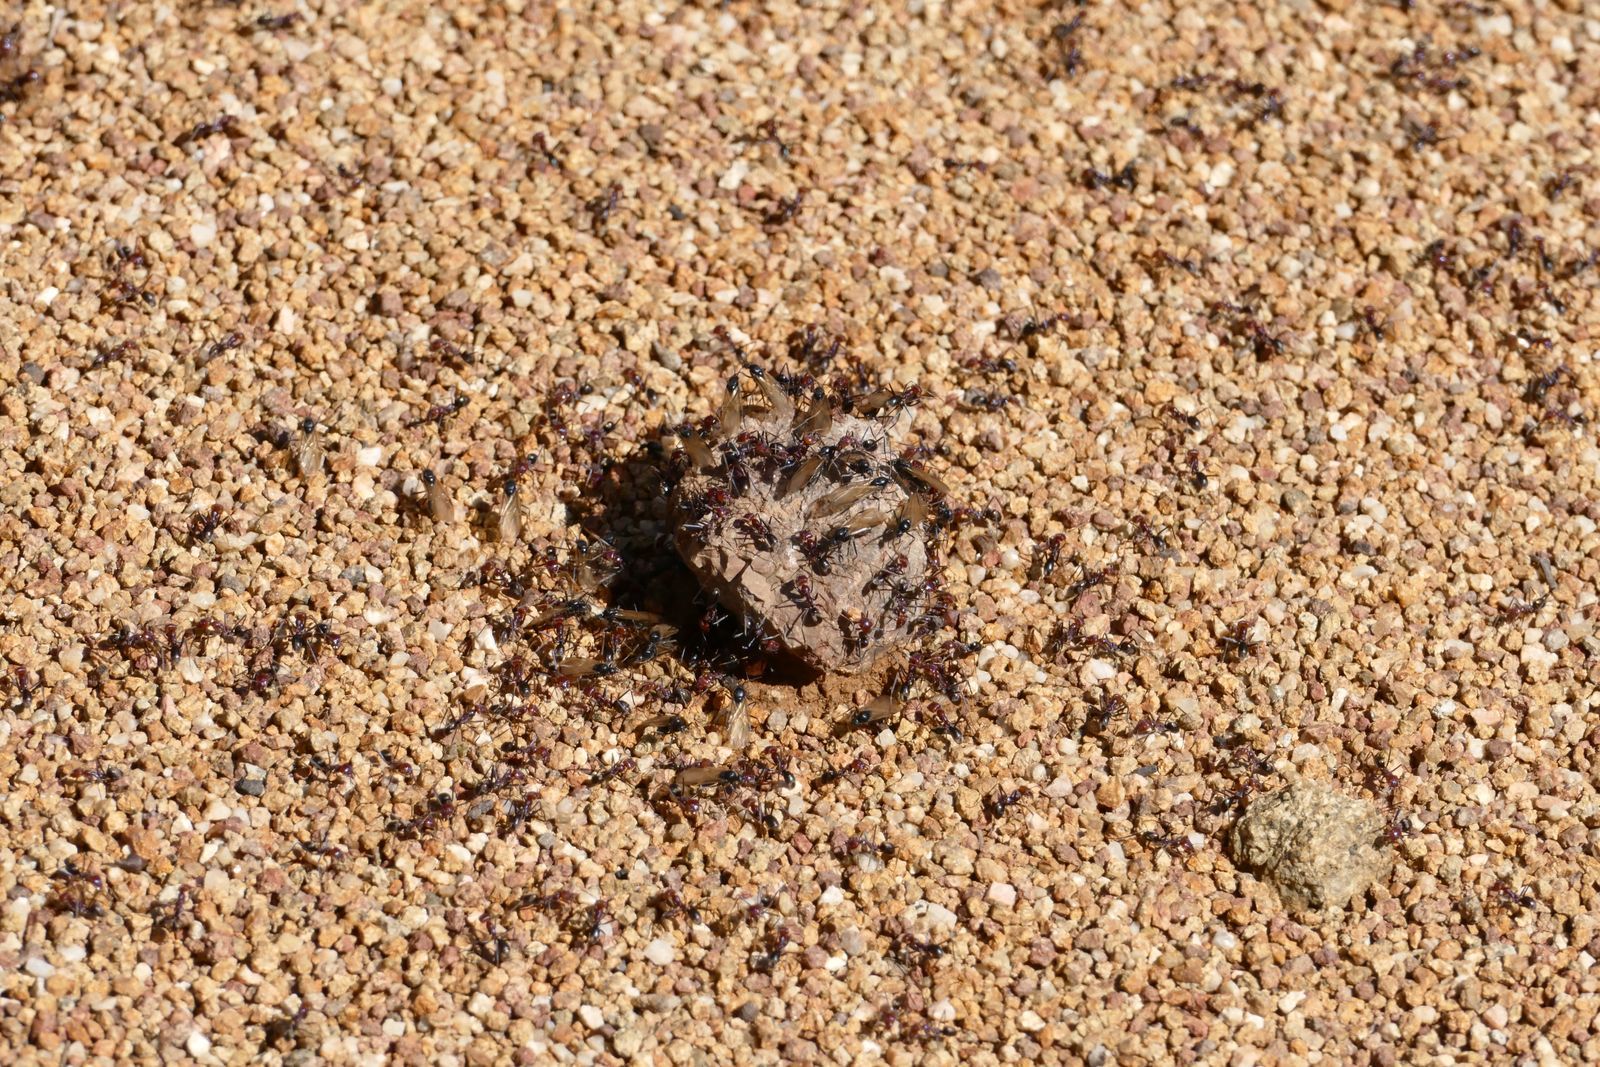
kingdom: Animalia
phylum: Arthropoda
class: Insecta
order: Hymenoptera
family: Formicidae
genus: Iridomyrmex
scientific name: Iridomyrmex purpureus
